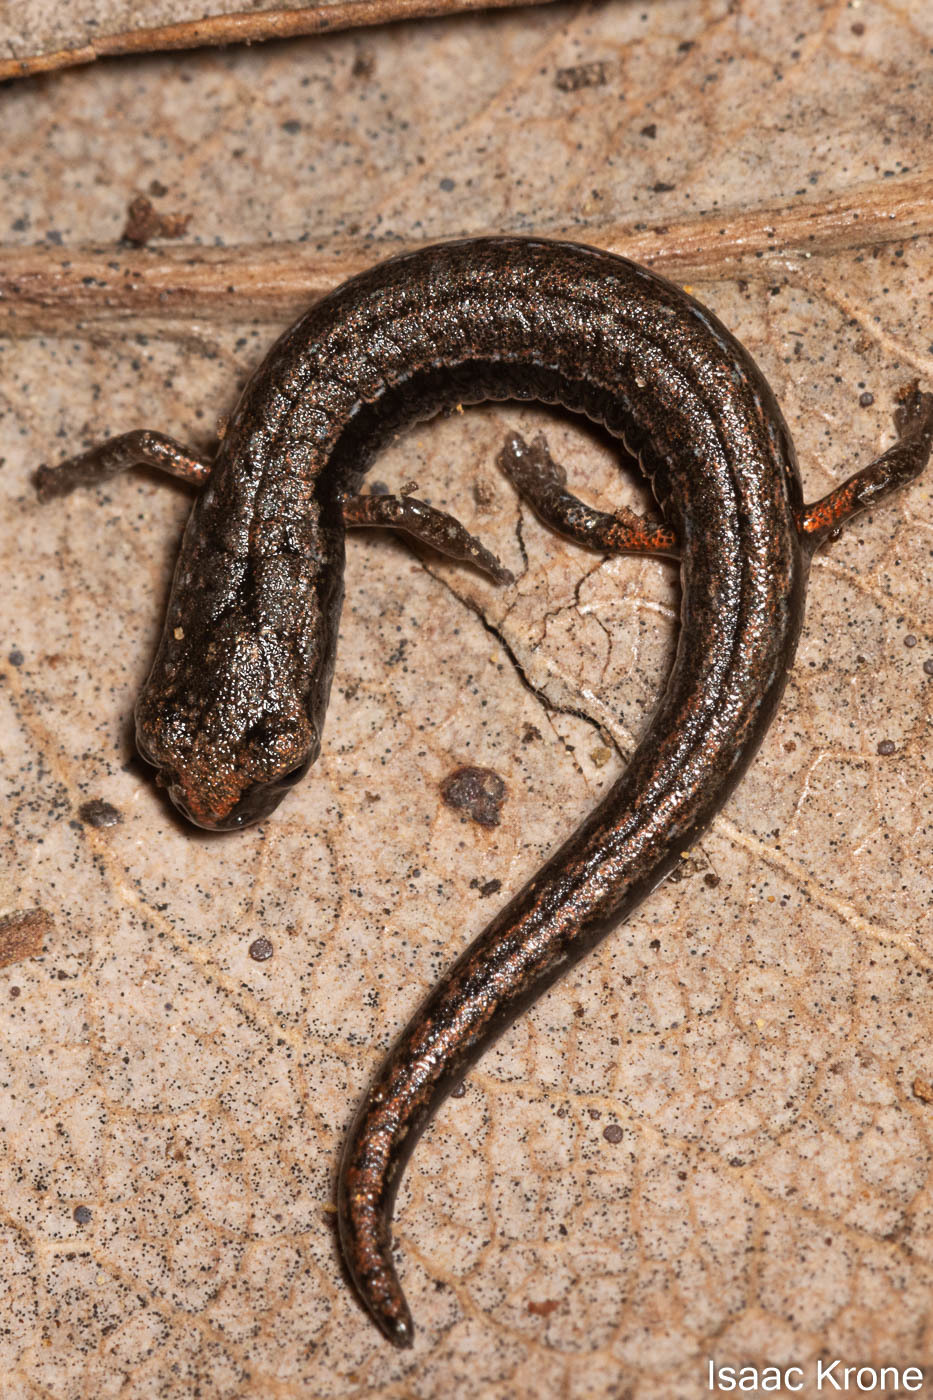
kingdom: Animalia
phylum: Chordata
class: Amphibia
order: Caudata
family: Plethodontidae
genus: Batrachoseps
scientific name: Batrachoseps attenuatus
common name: California slender salamander
